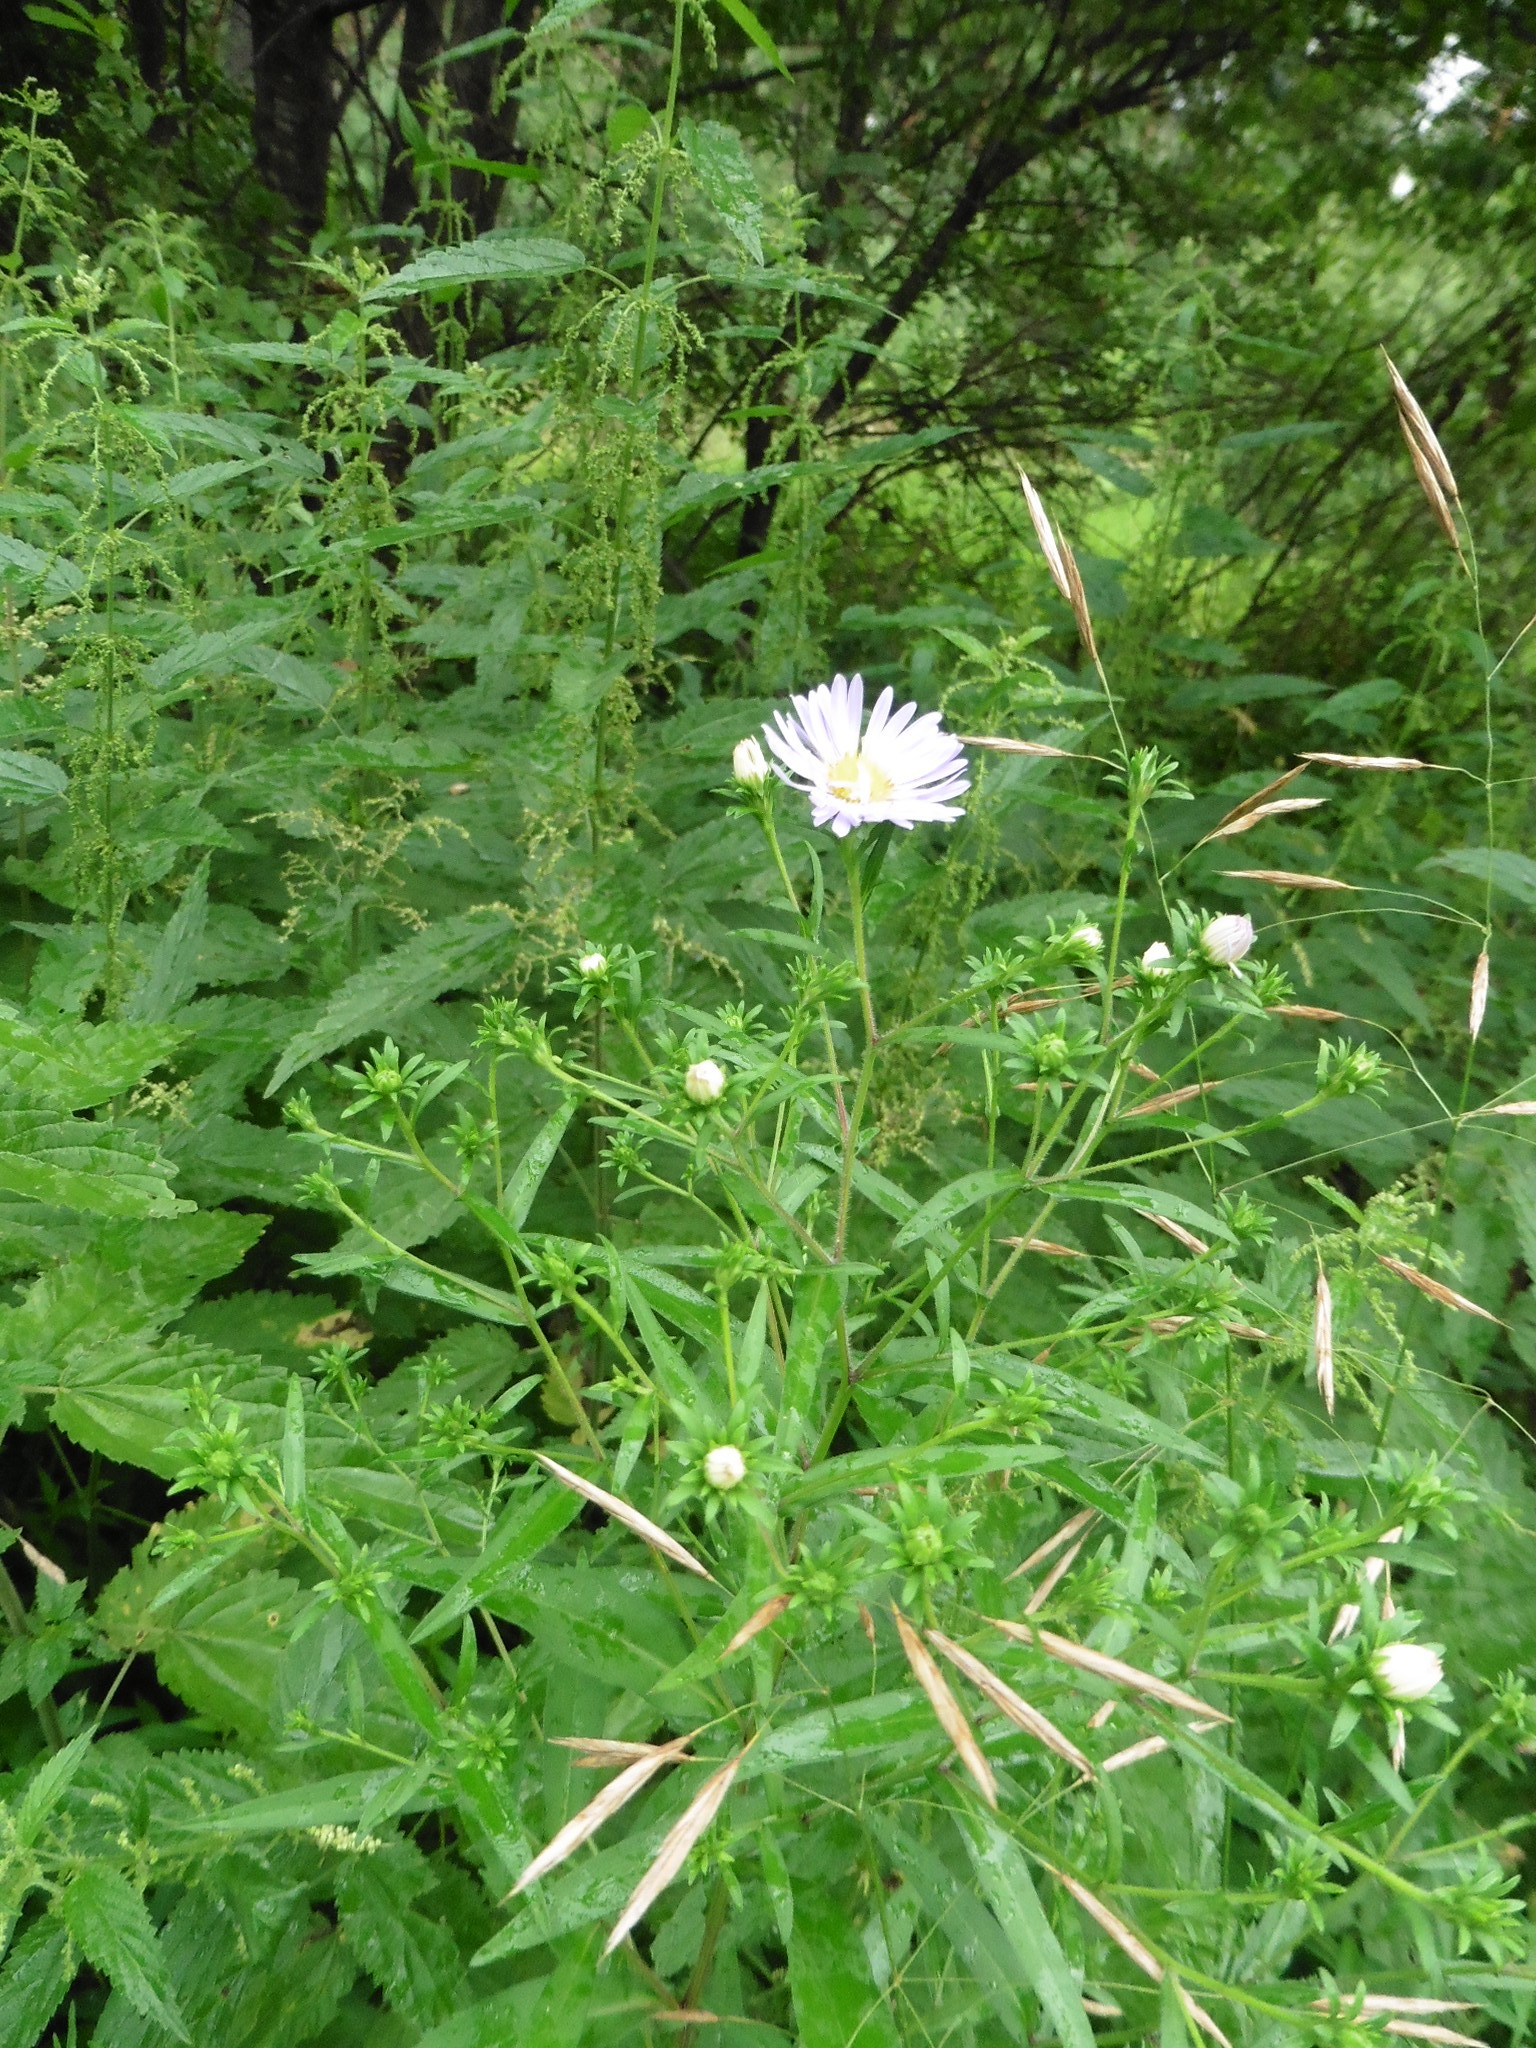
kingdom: Plantae
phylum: Tracheophyta
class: Magnoliopsida
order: Asterales
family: Asteraceae
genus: Symphyotrichum
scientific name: Symphyotrichum salignum
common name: Common michaelmas daisy
